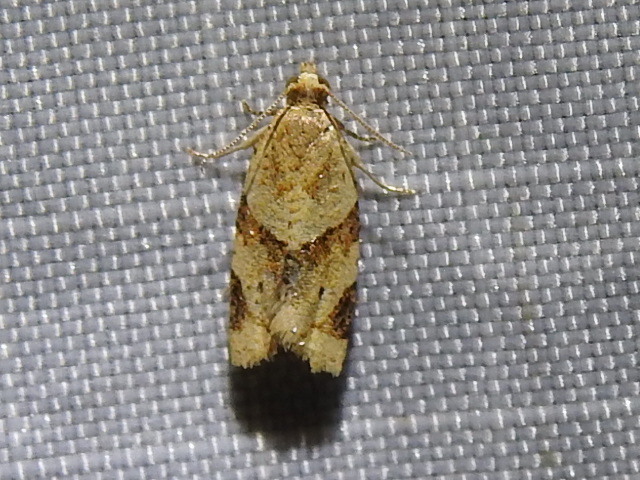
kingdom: Animalia
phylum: Arthropoda
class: Insecta
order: Lepidoptera
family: Tortricidae
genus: Clepsis
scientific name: Clepsis peritana
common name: Garden tortrix
